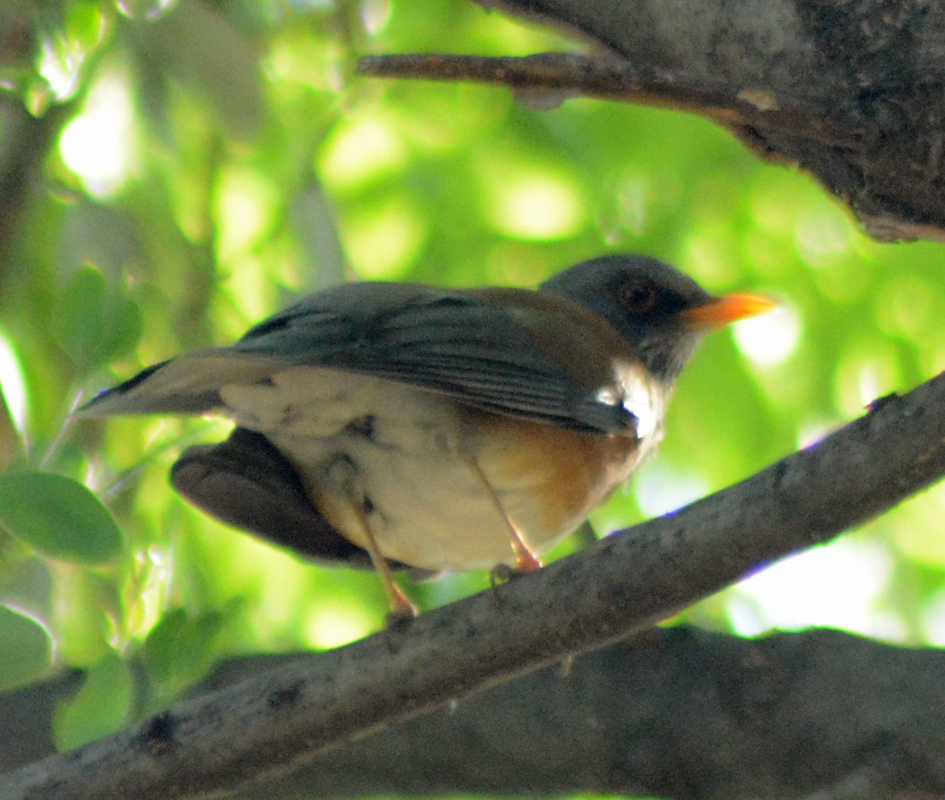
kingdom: Animalia
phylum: Chordata
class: Aves
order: Passeriformes
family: Turdidae
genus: Turdus
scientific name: Turdus rufopalliatus
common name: Rufous-backed robin
